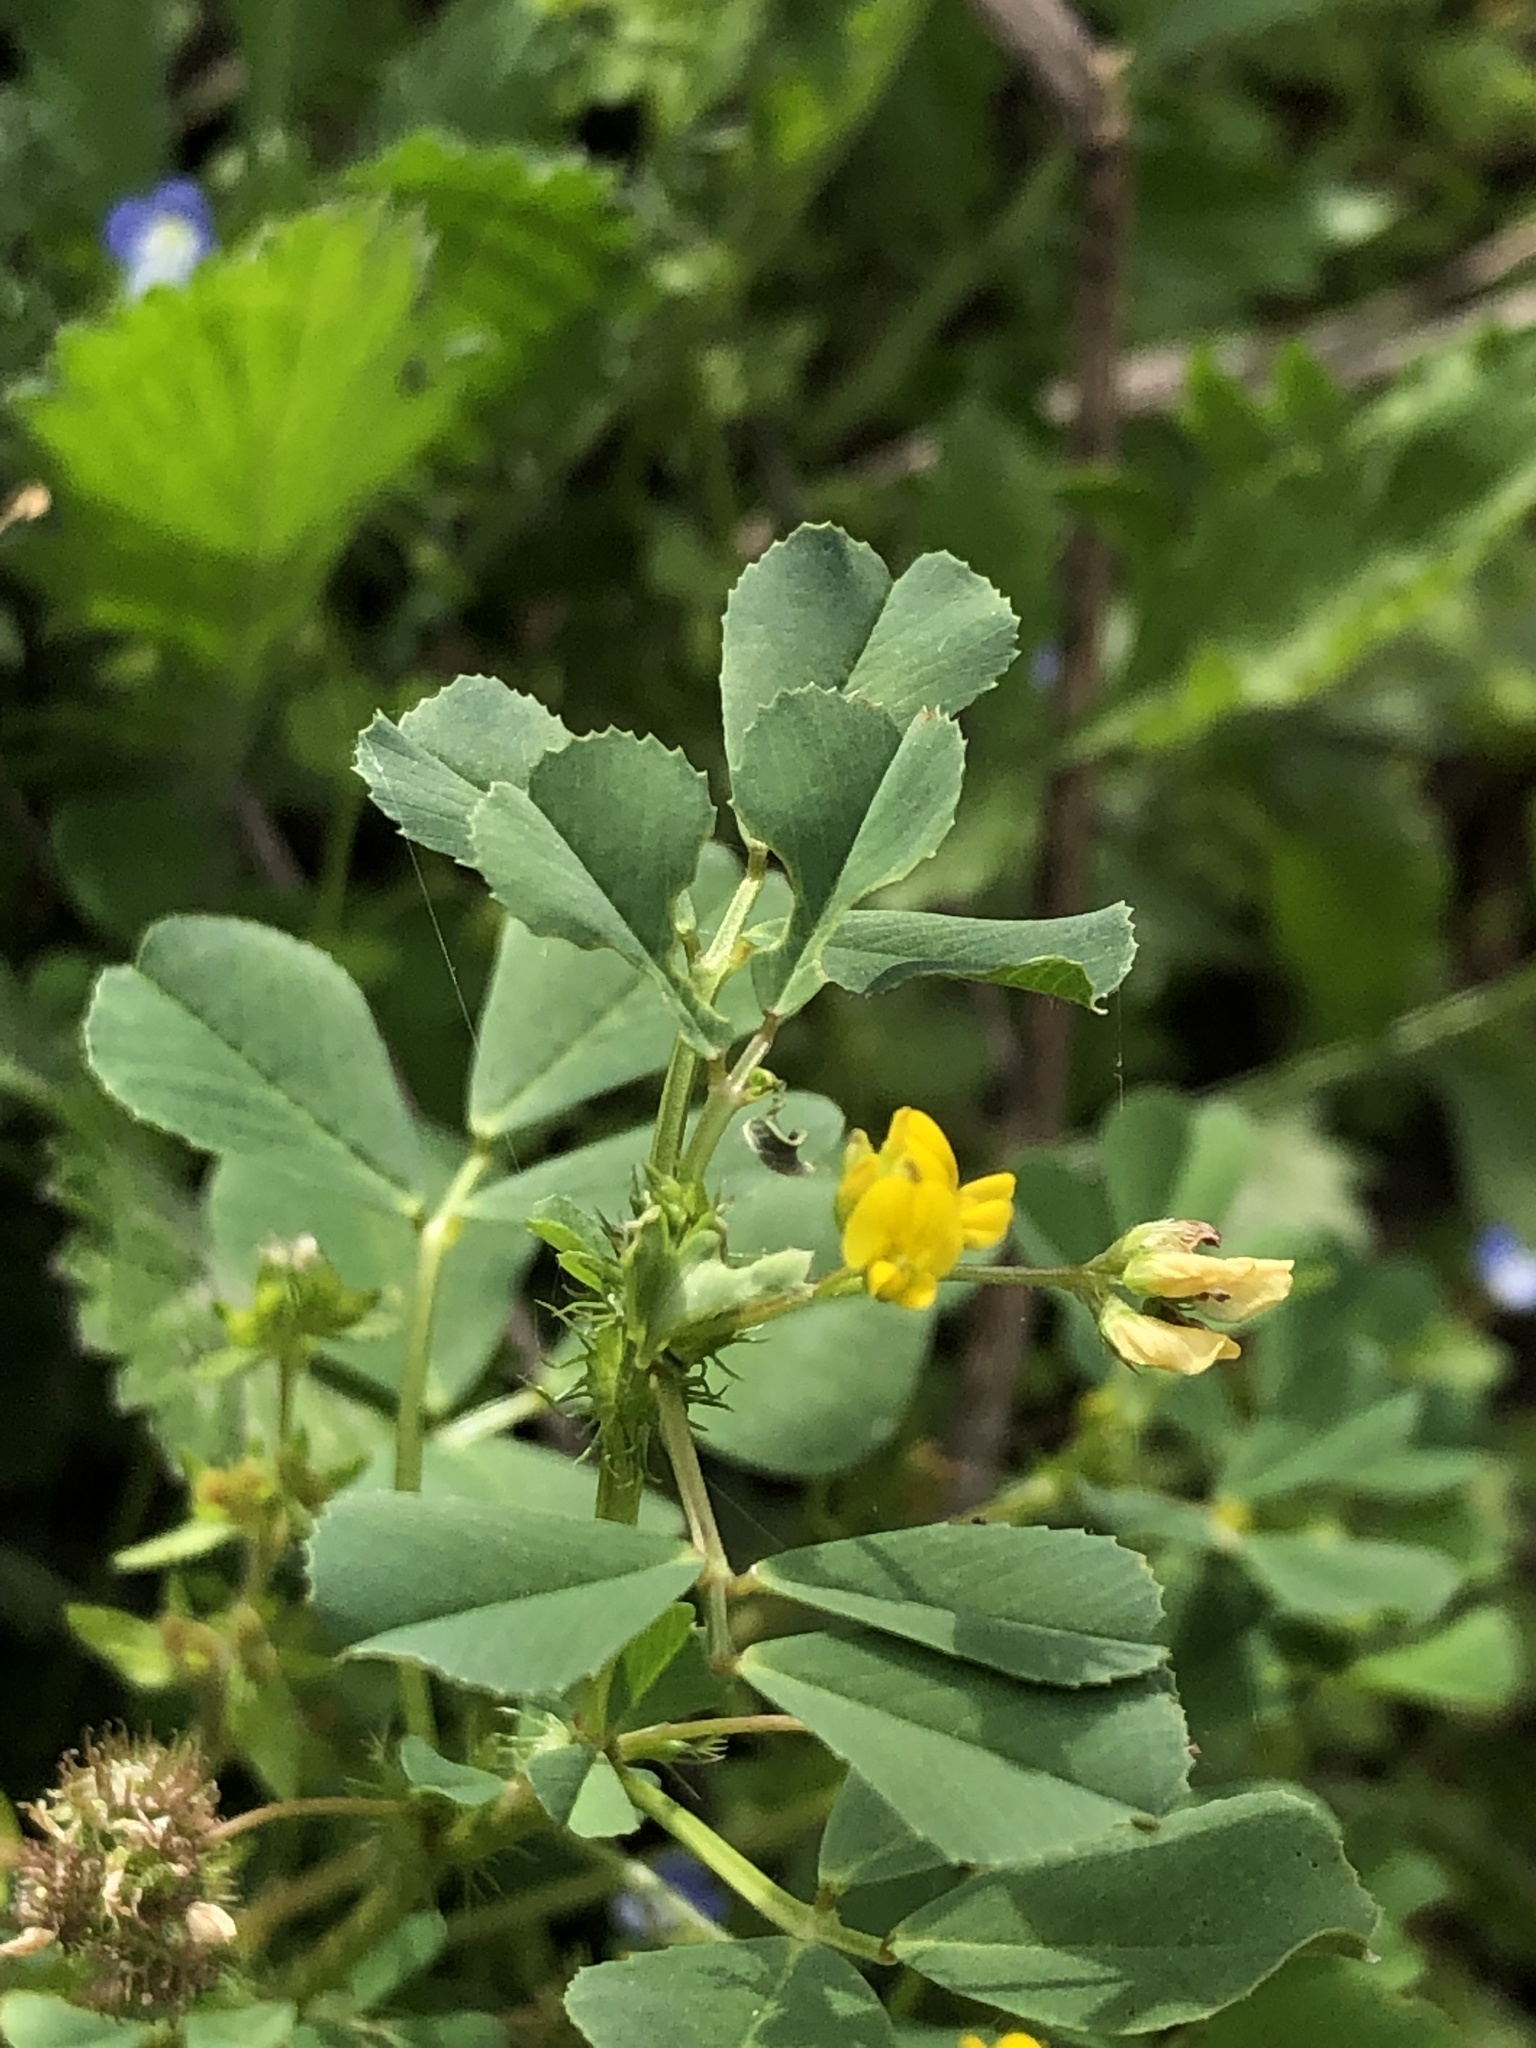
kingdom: Plantae
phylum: Tracheophyta
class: Magnoliopsida
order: Fabales
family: Fabaceae
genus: Medicago
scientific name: Medicago polymorpha
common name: Burclover
